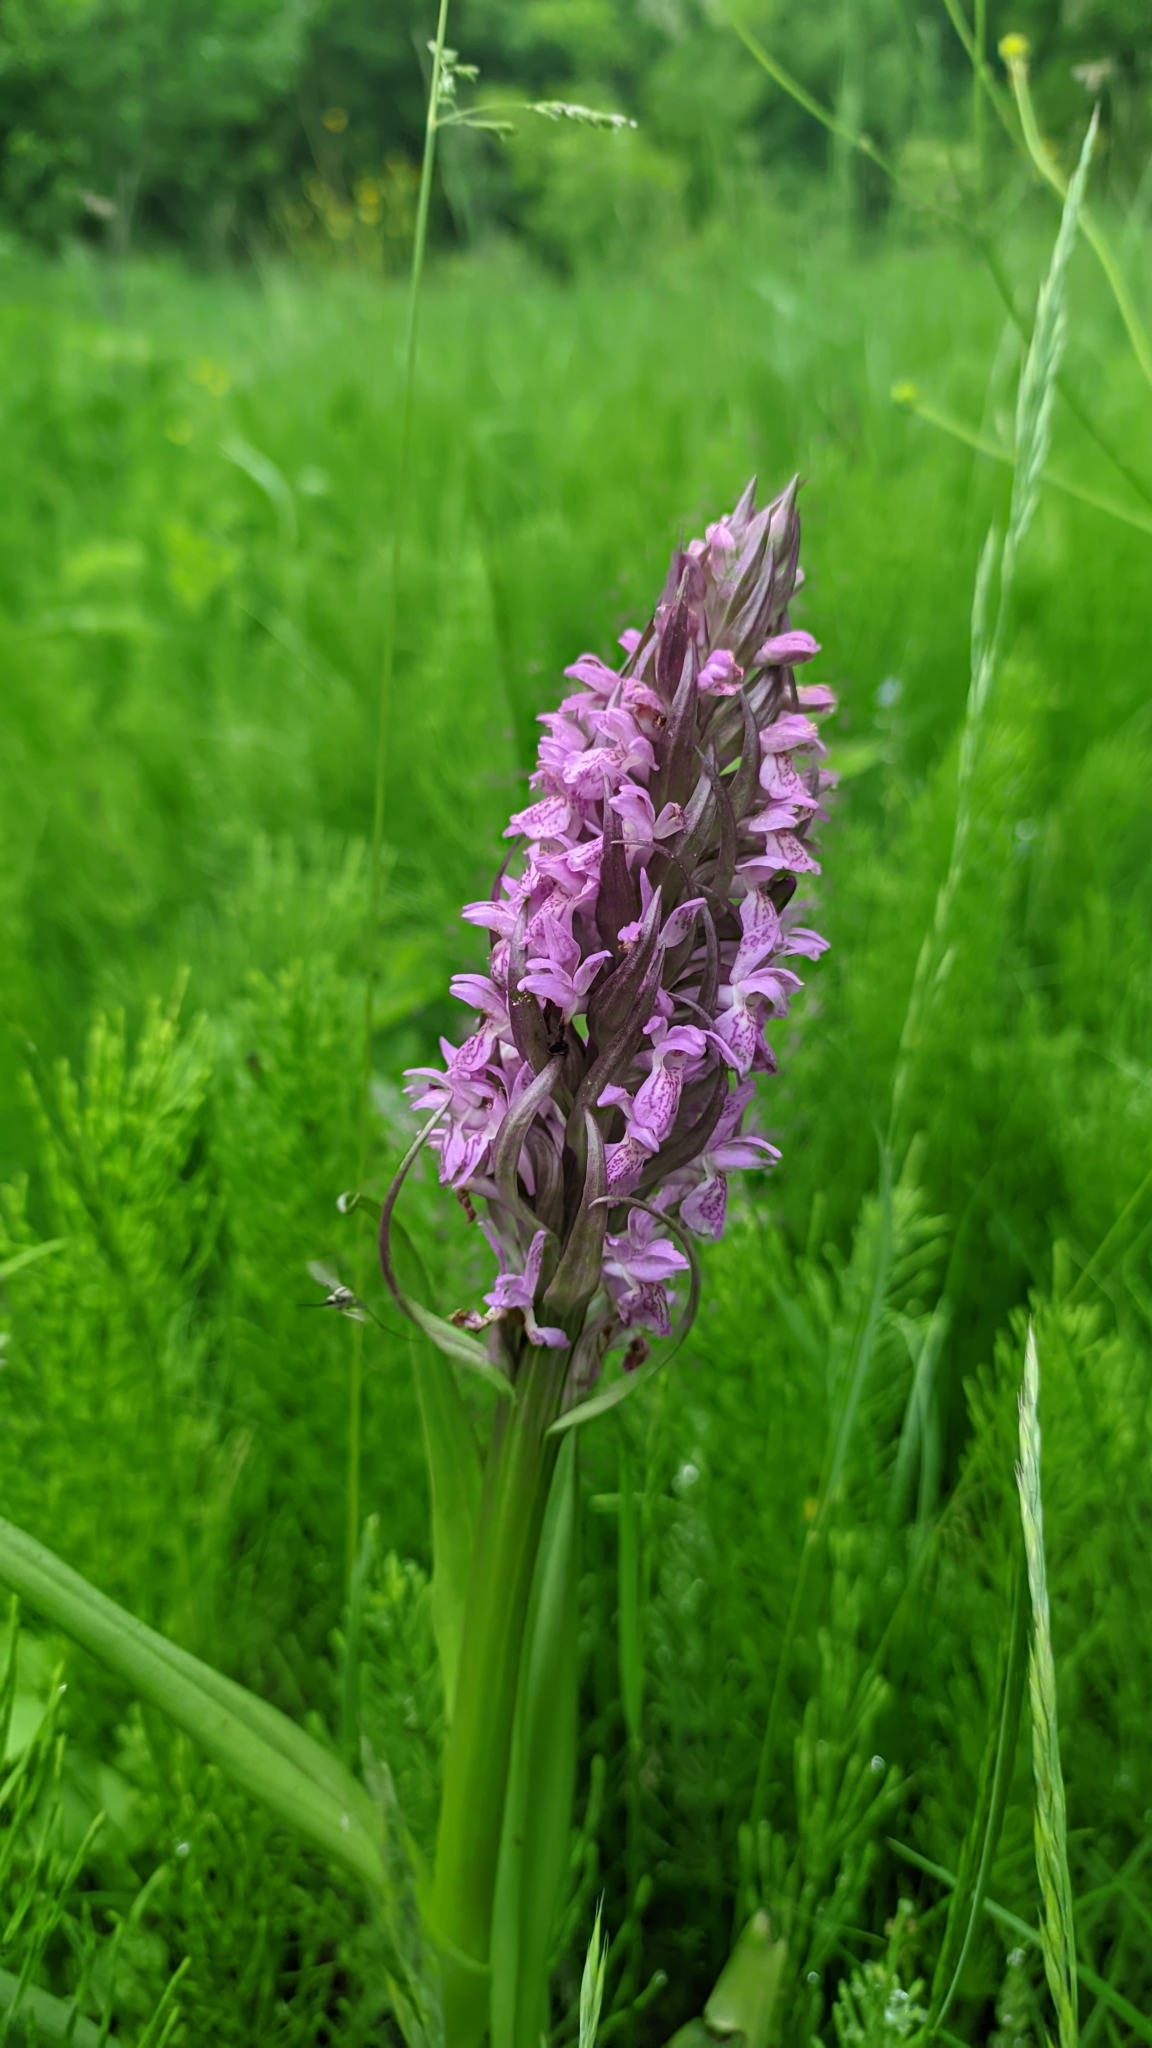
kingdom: Plantae
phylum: Tracheophyta
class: Liliopsida
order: Asparagales
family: Orchidaceae
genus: Dactylorhiza
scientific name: Dactylorhiza incarnata
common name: Early marsh-orchid
